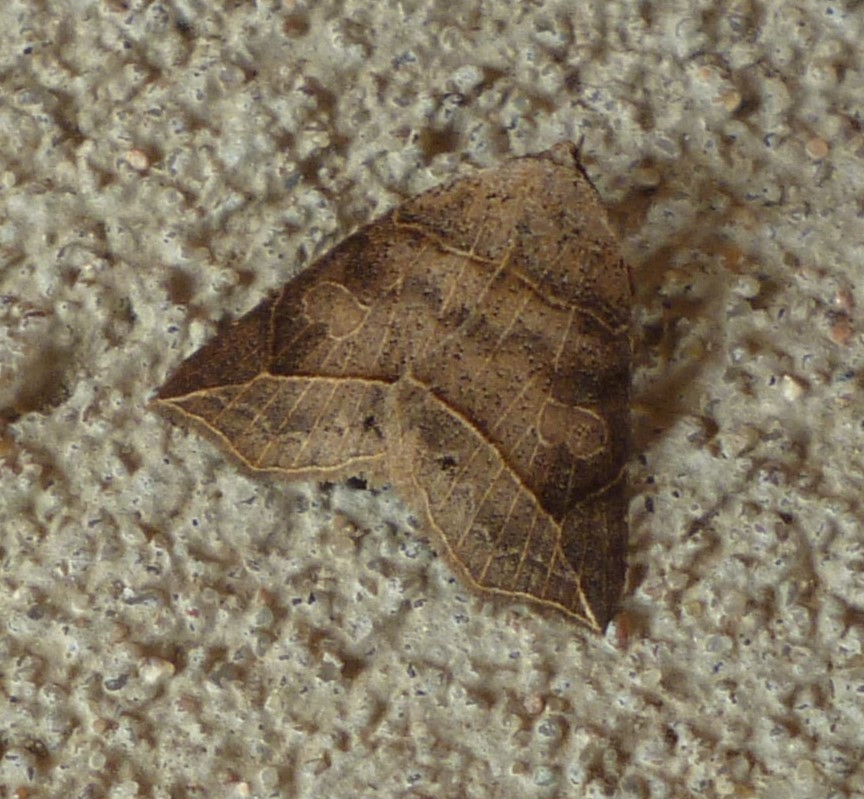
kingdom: Animalia
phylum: Arthropoda
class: Insecta
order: Lepidoptera
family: Erebidae
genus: Isogona
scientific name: Isogona tenuis
